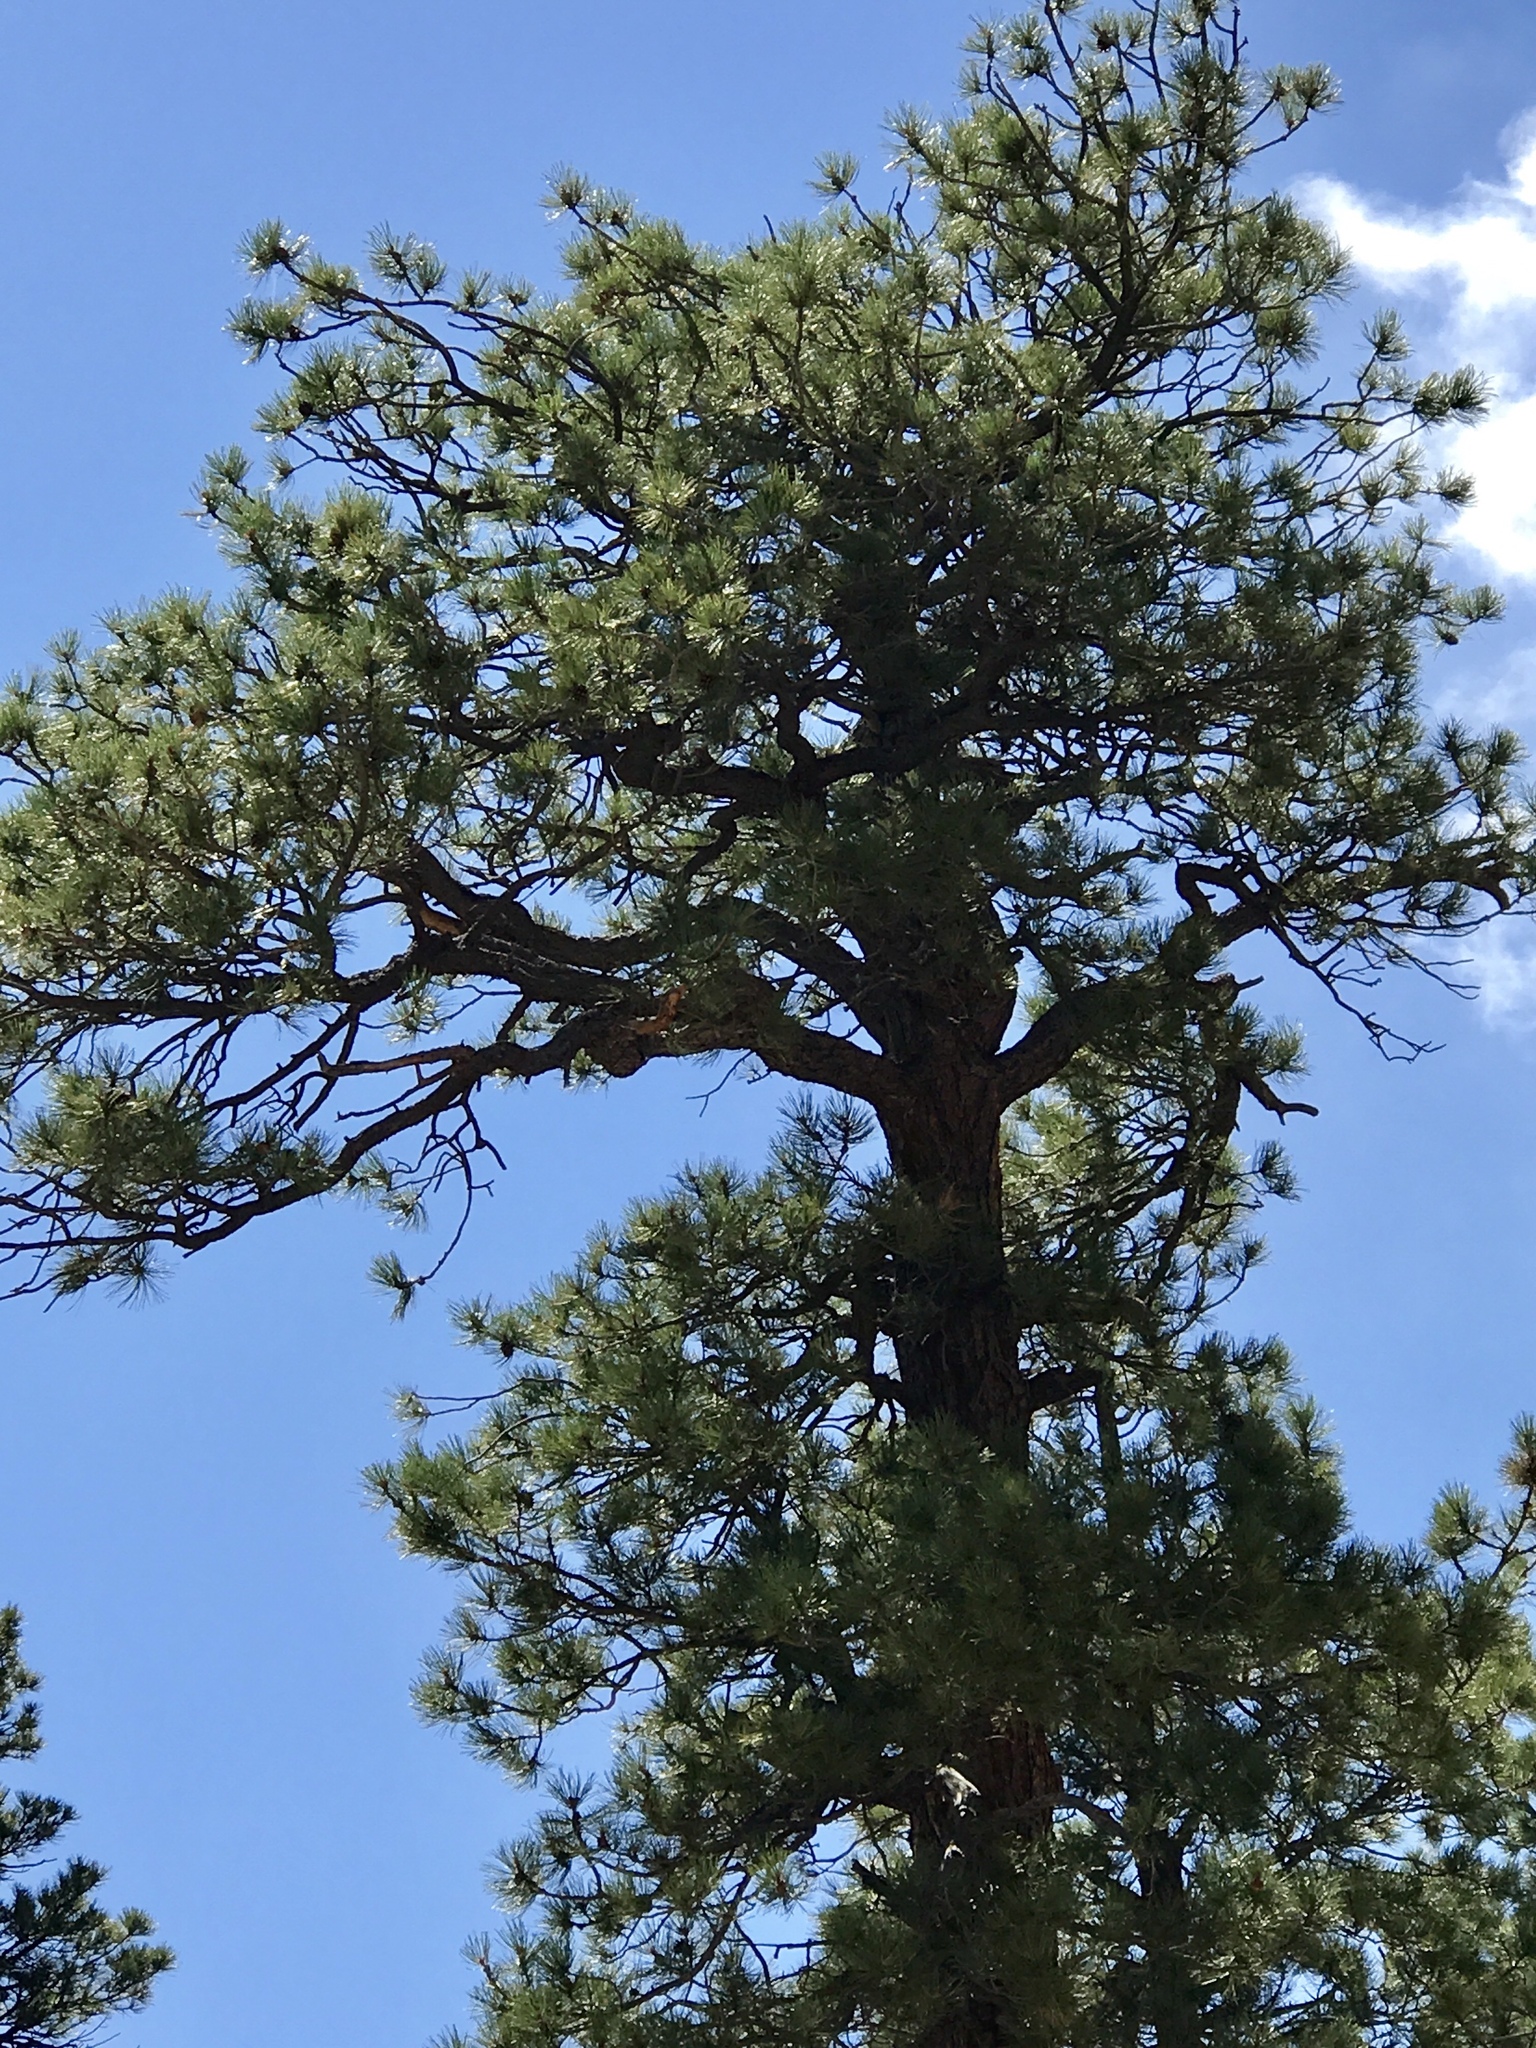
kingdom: Plantae
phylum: Tracheophyta
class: Pinopsida
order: Pinales
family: Pinaceae
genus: Pinus
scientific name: Pinus ponderosa
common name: Western yellow-pine
